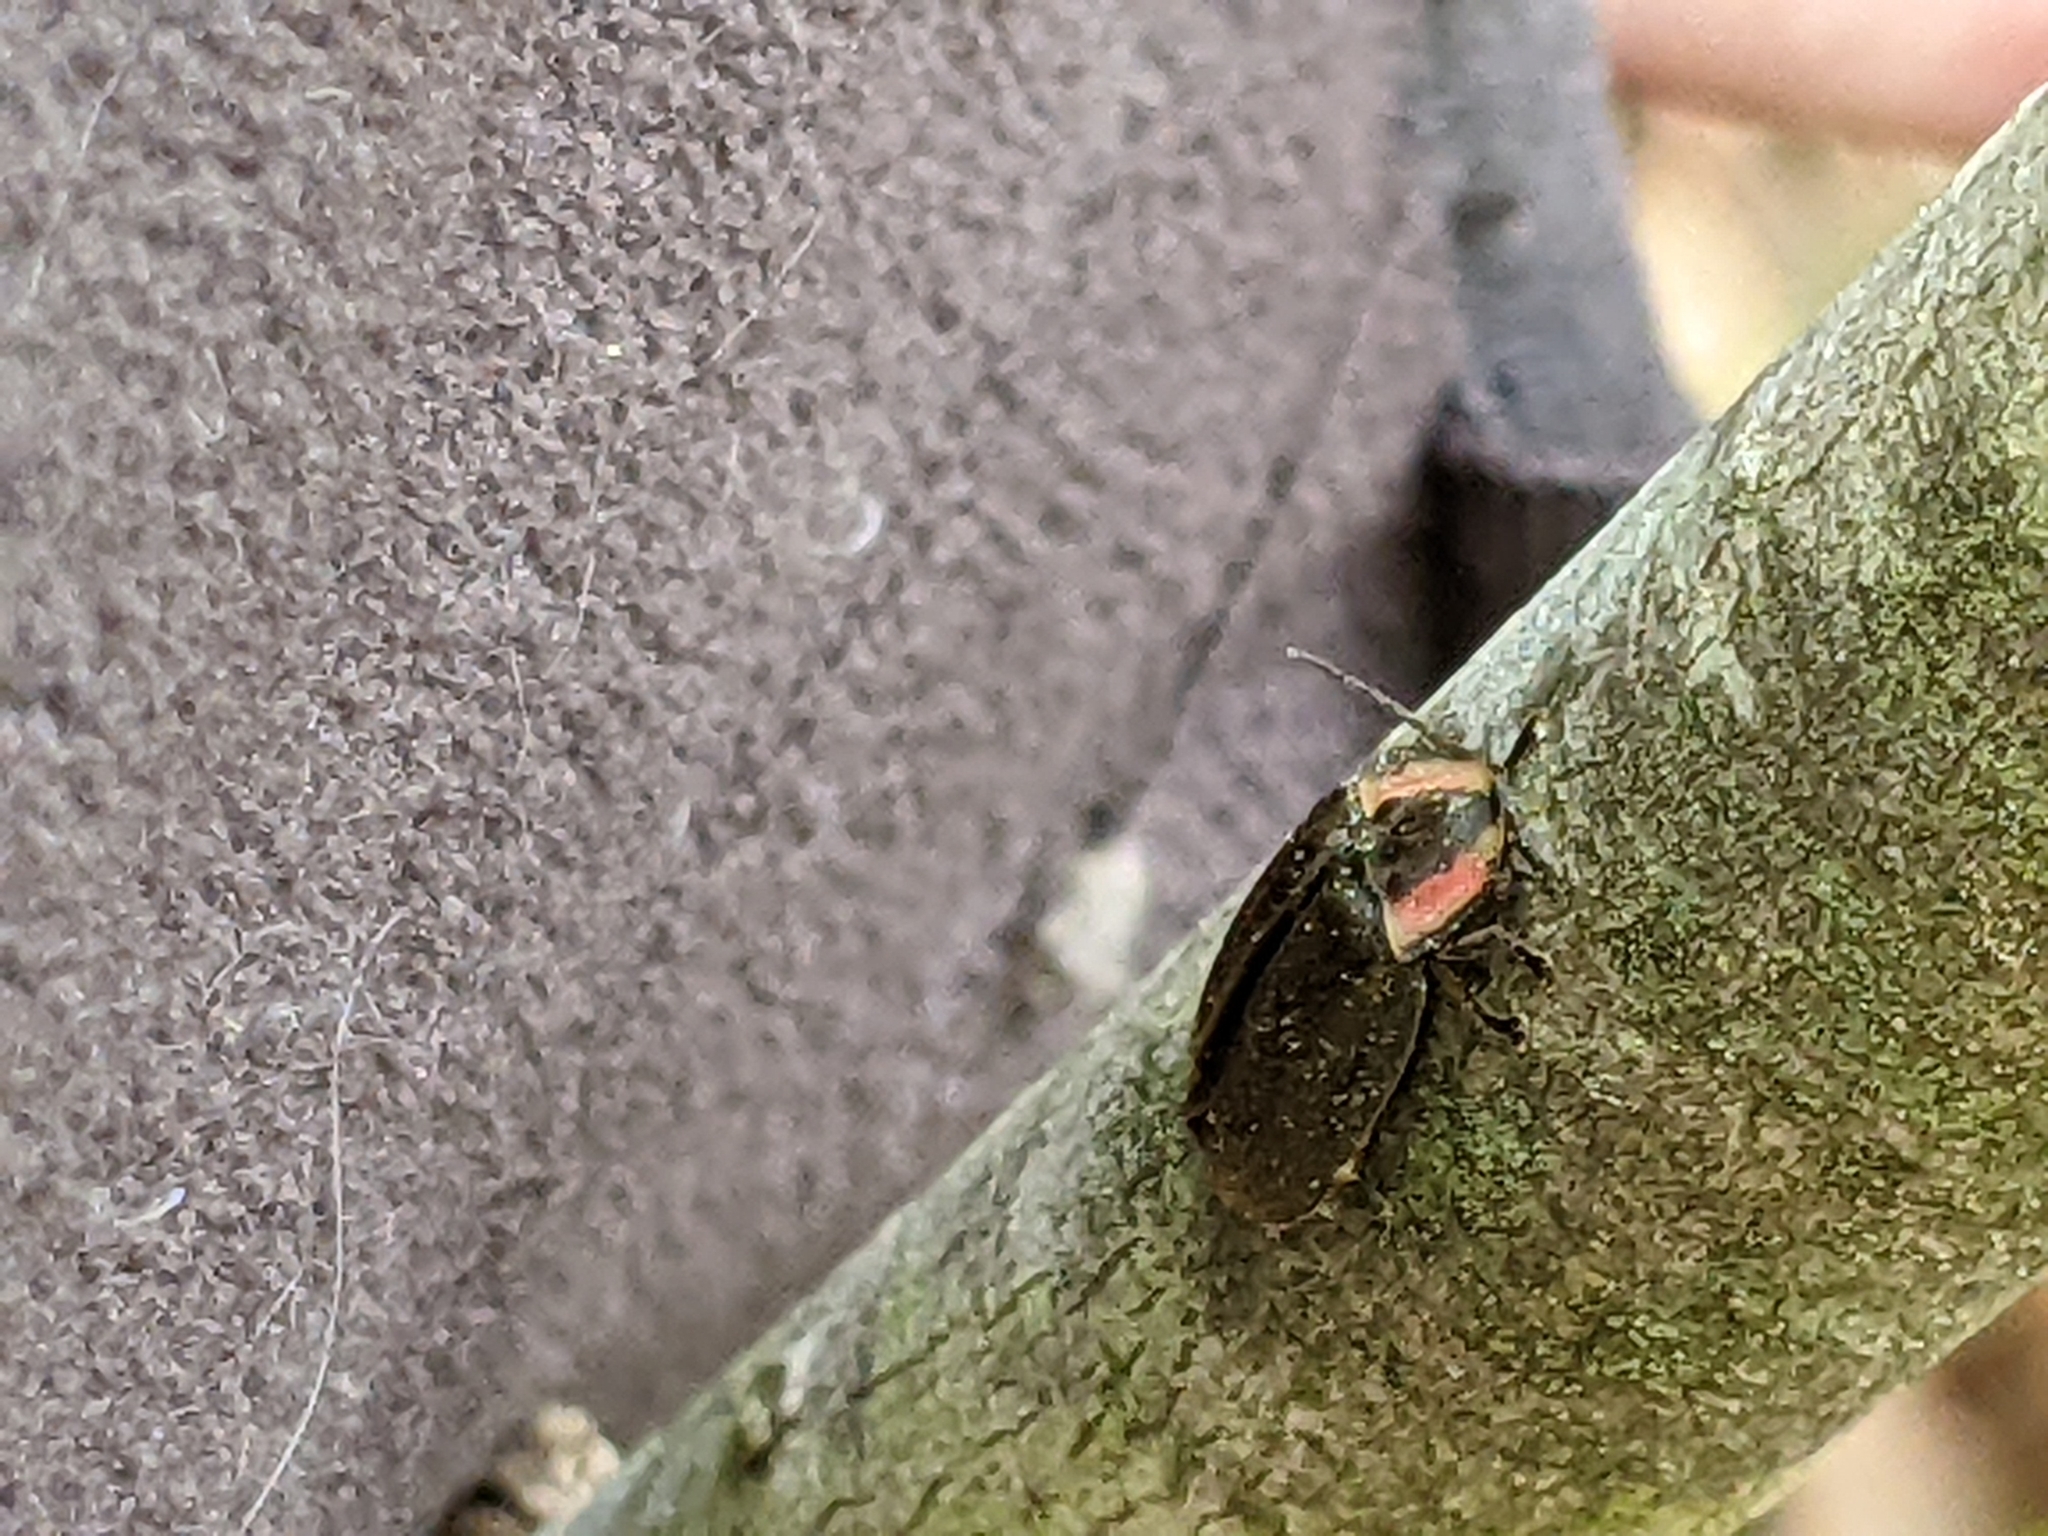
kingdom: Animalia
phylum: Arthropoda
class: Insecta
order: Coleoptera
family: Lampyridae
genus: Photinus
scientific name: Photinus corrusca
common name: Winter firefly
